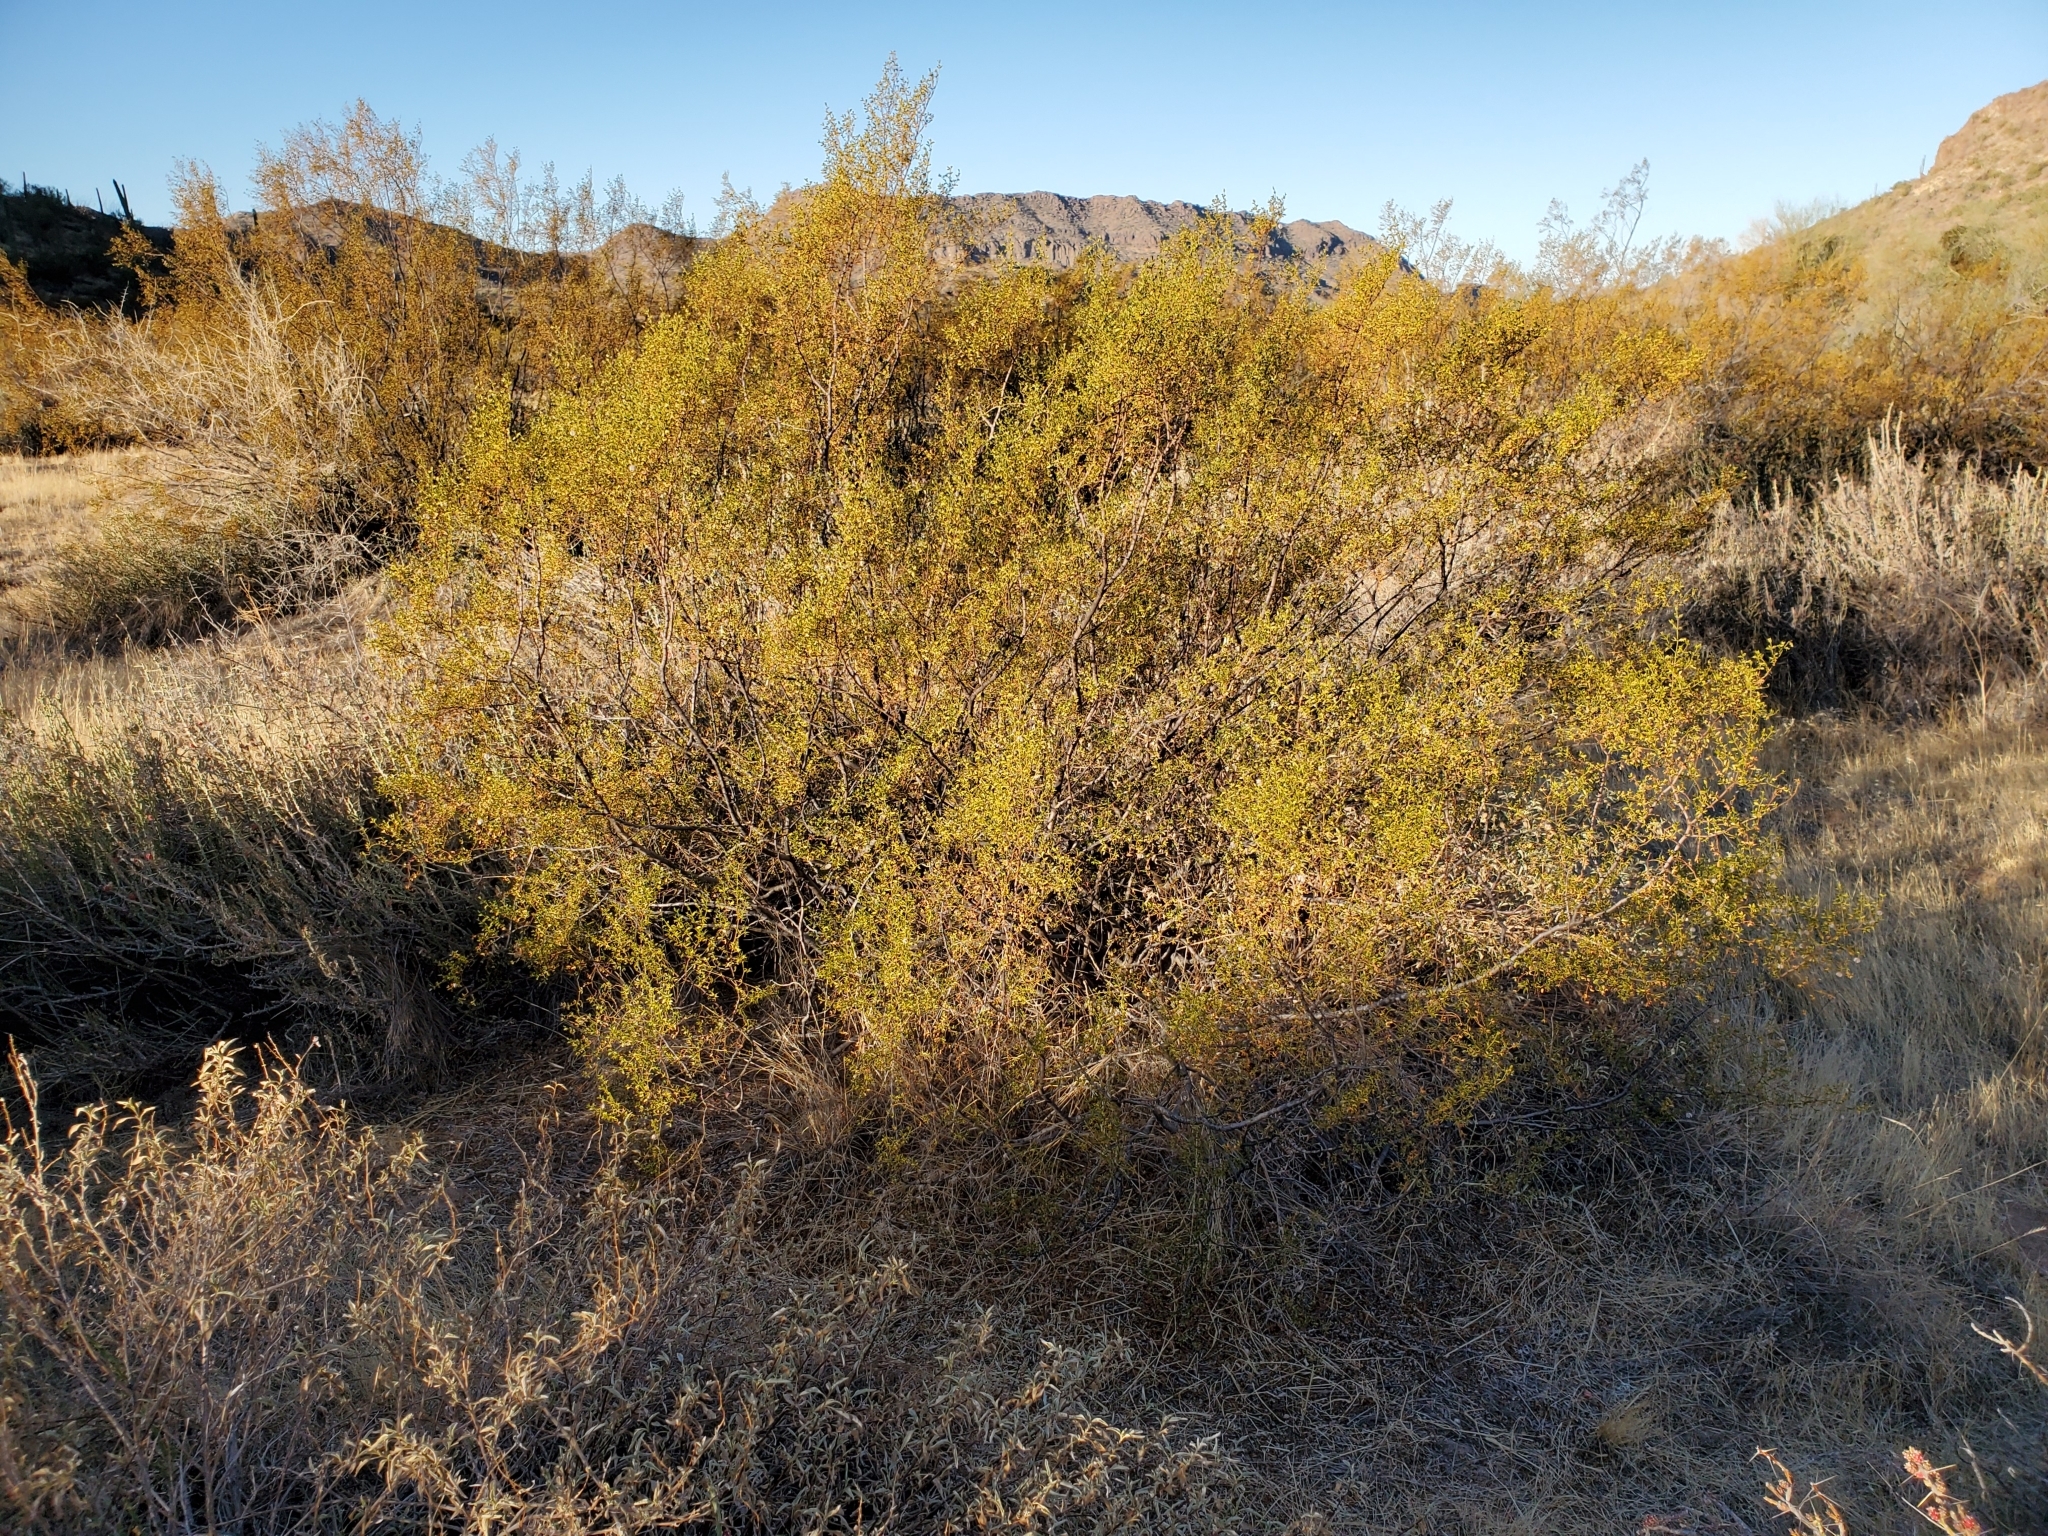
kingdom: Plantae
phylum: Tracheophyta
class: Magnoliopsida
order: Zygophyllales
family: Zygophyllaceae
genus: Larrea
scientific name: Larrea tridentata
